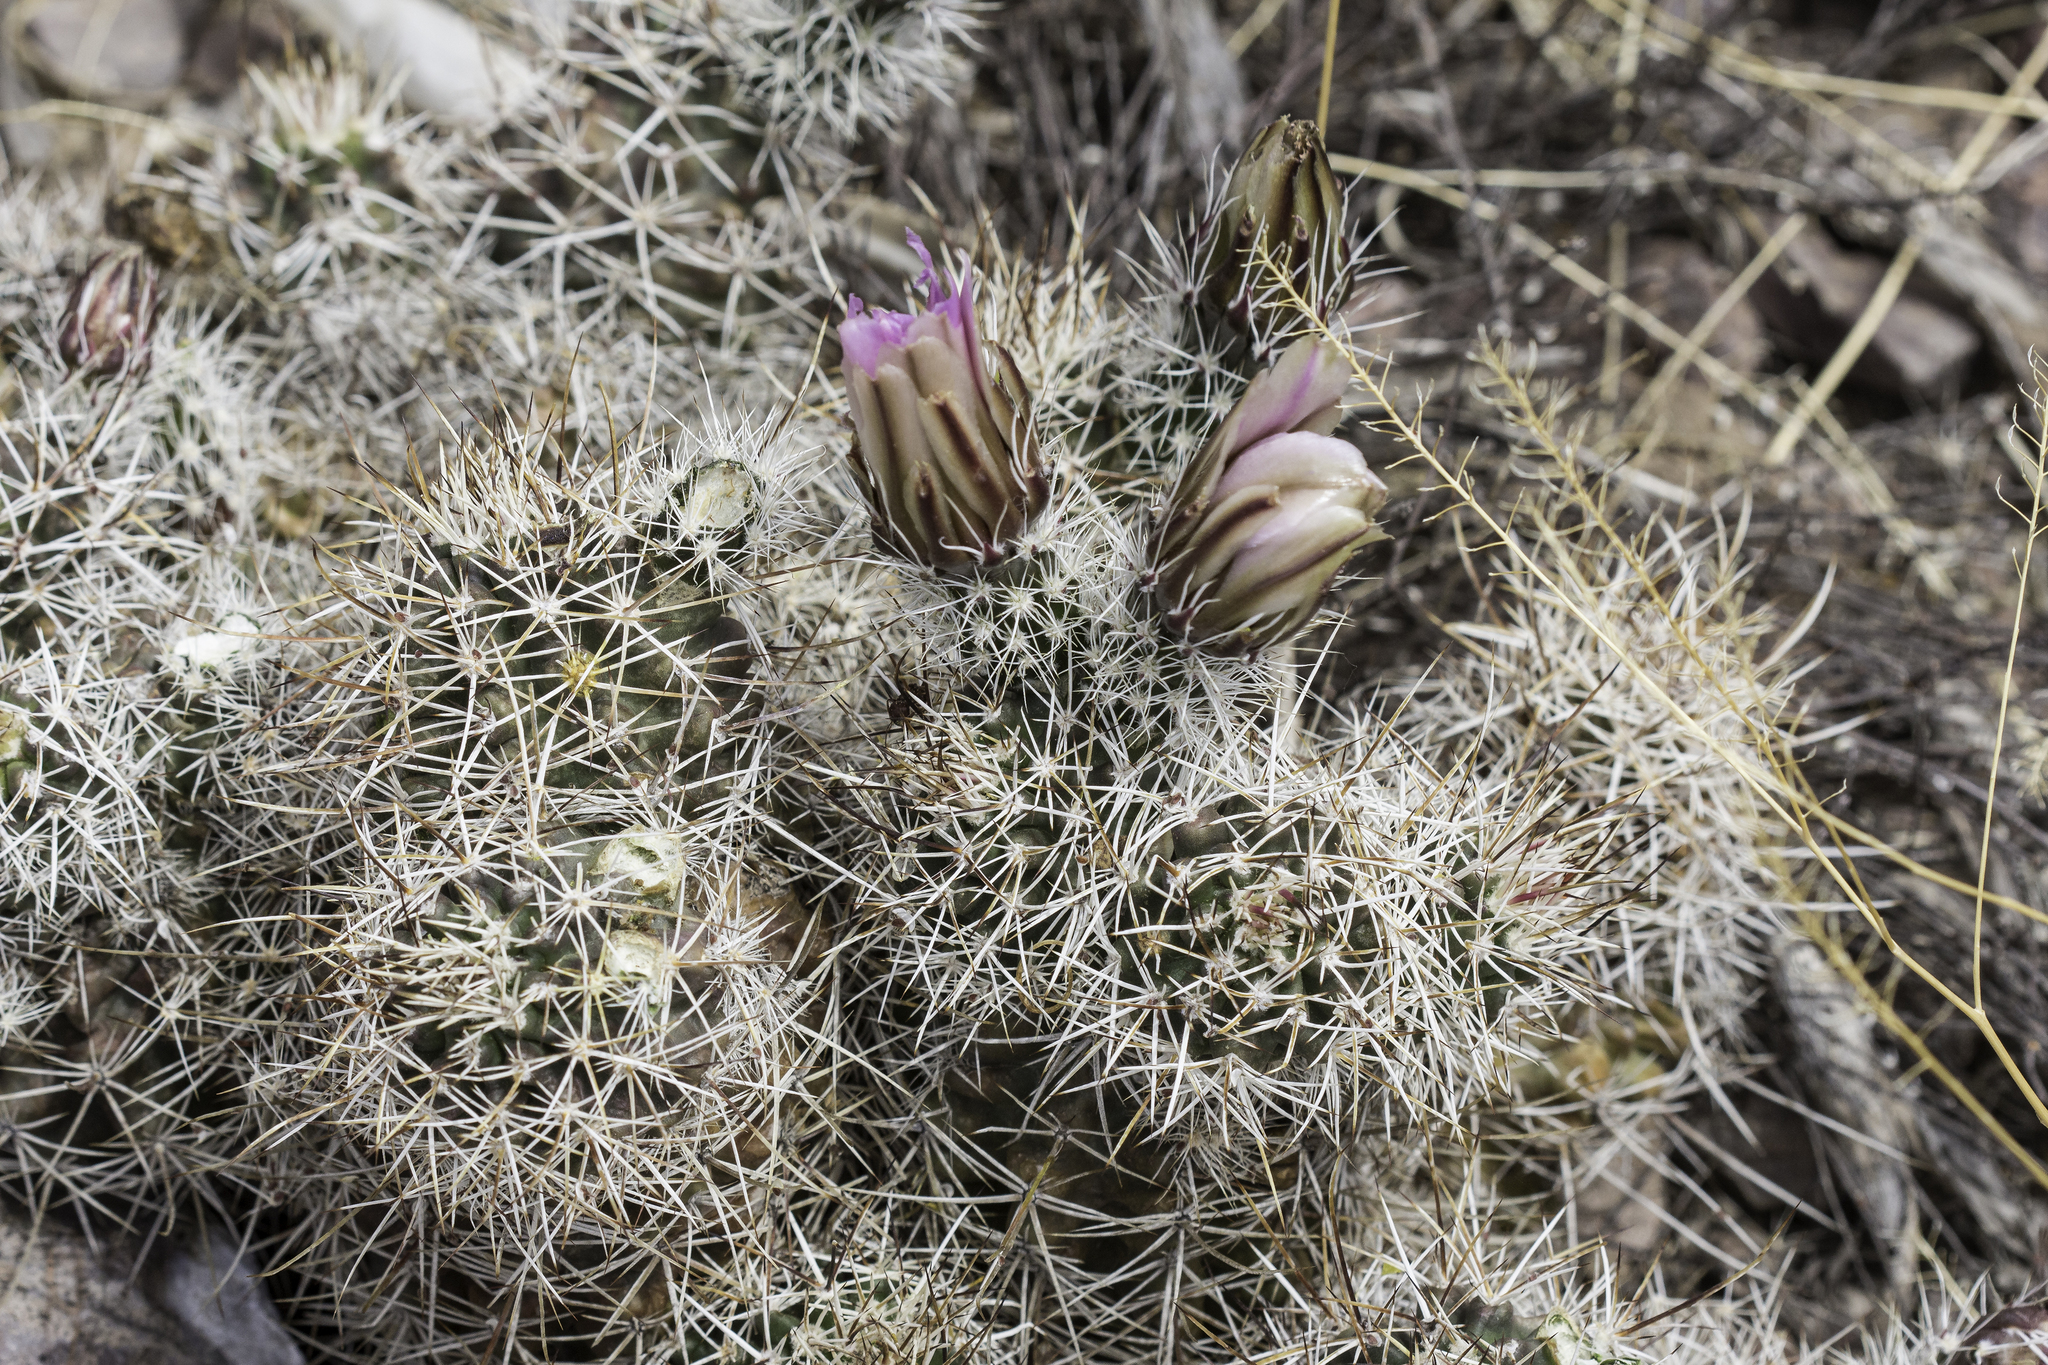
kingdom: Plantae
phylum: Tracheophyta
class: Magnoliopsida
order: Caryophyllales
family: Cactaceae
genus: Echinocereus
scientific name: Echinocereus fendleri
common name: Fendler's hedgehog cactus
